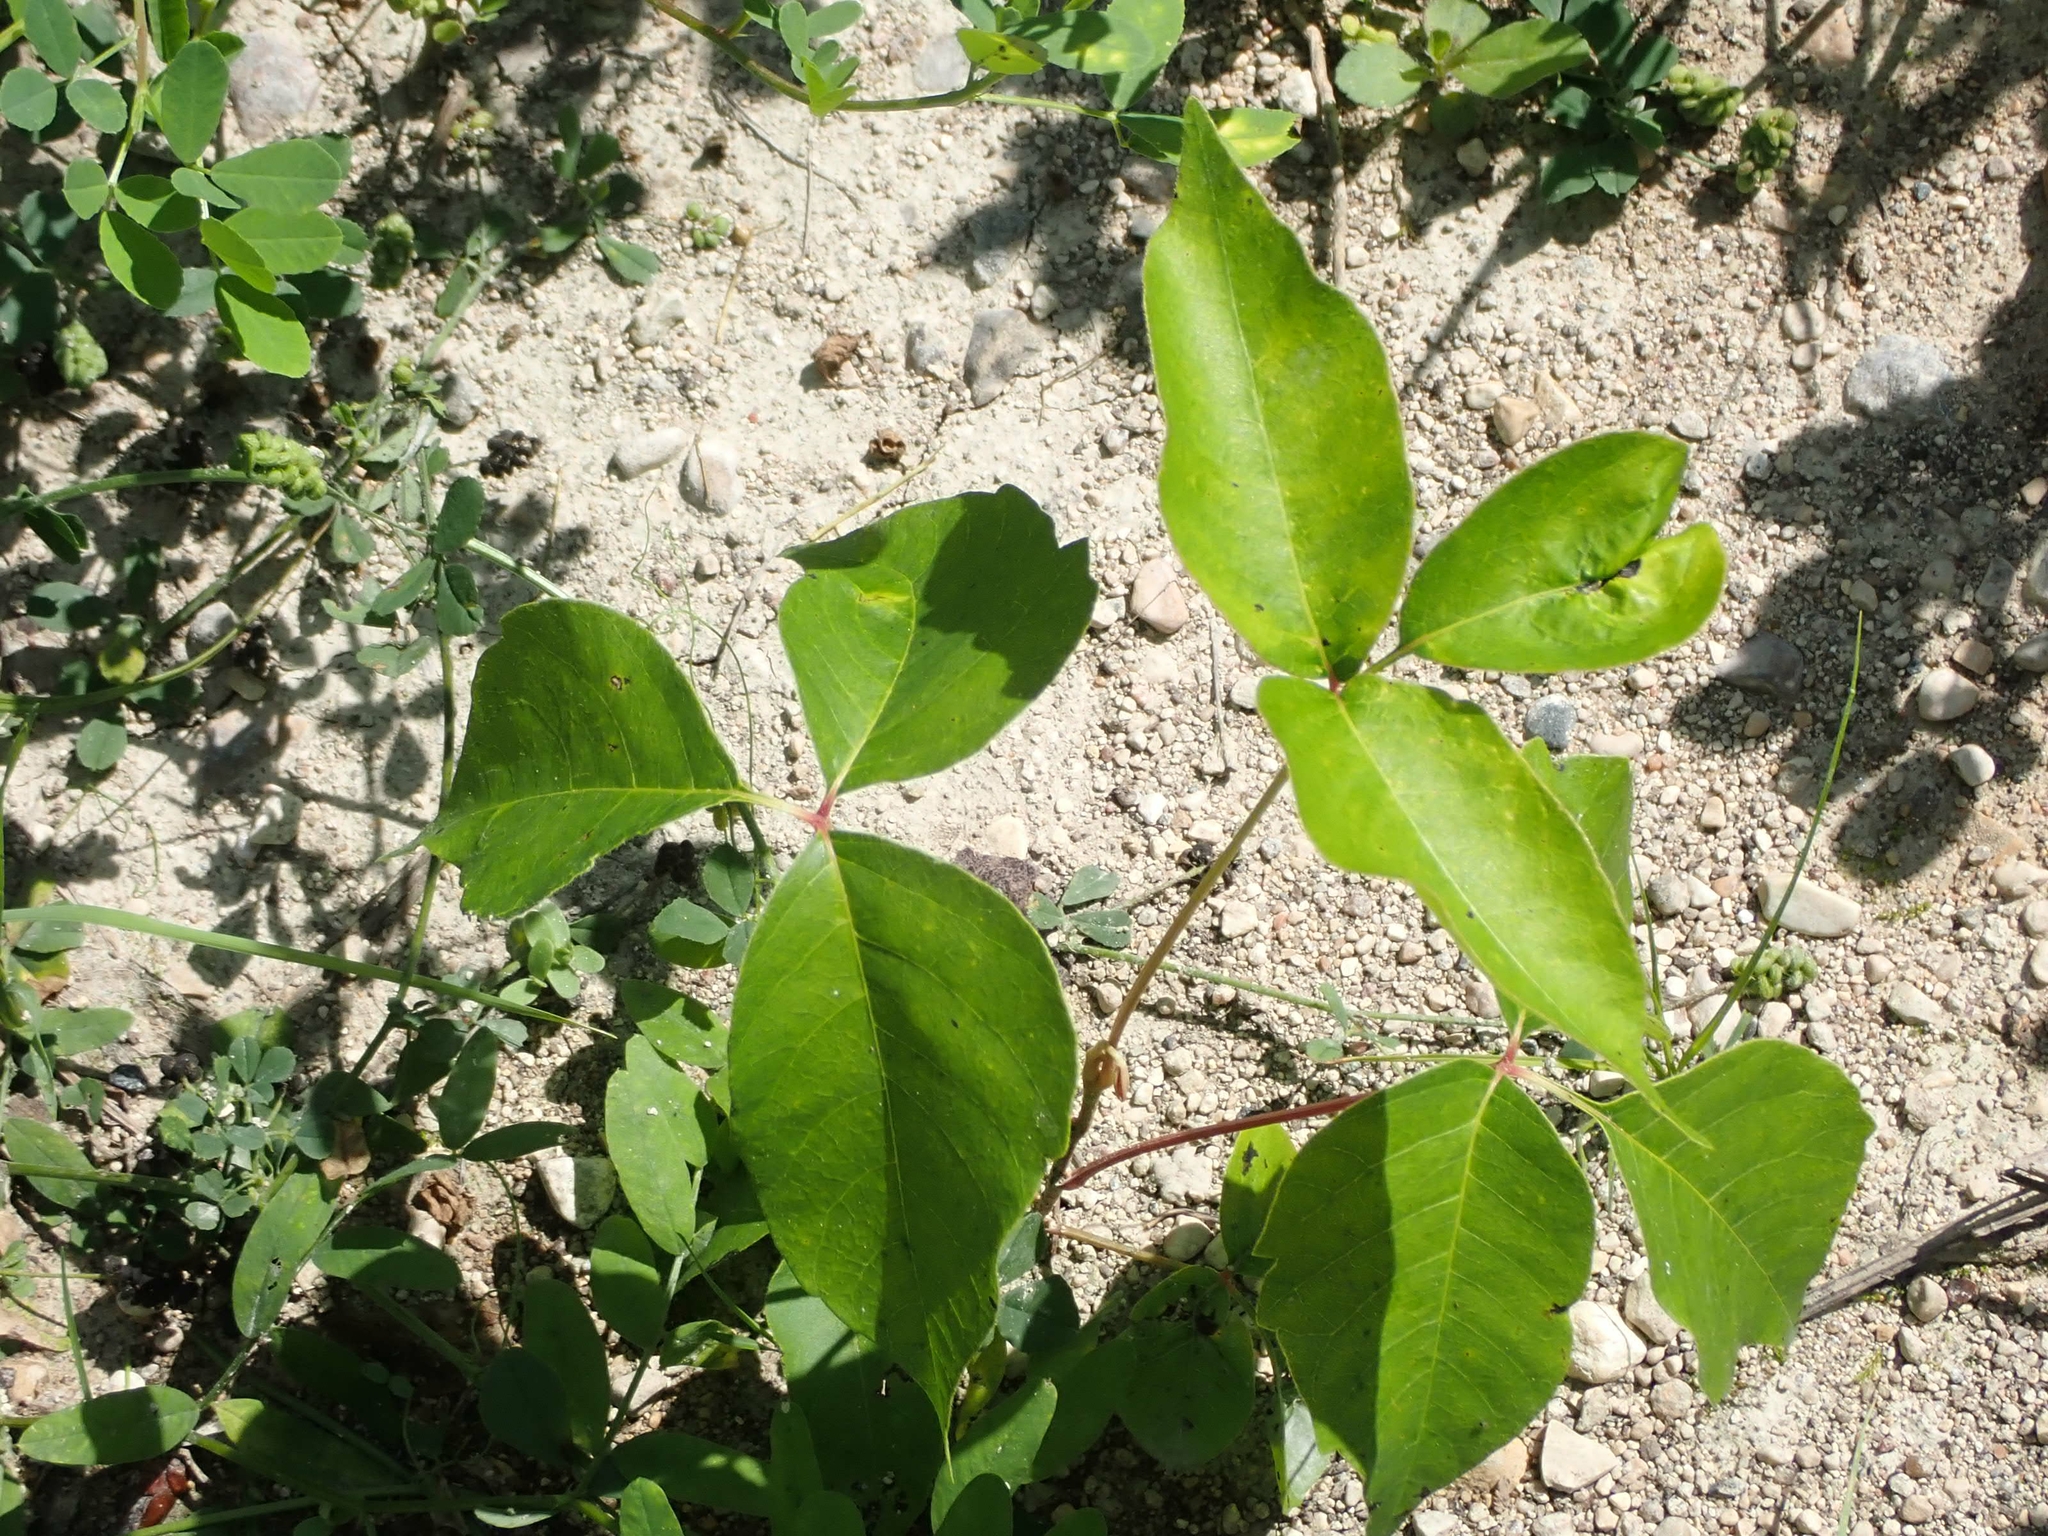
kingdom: Plantae
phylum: Tracheophyta
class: Magnoliopsida
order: Sapindales
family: Anacardiaceae
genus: Toxicodendron
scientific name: Toxicodendron rydbergii
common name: Rydberg's poison-ivy
